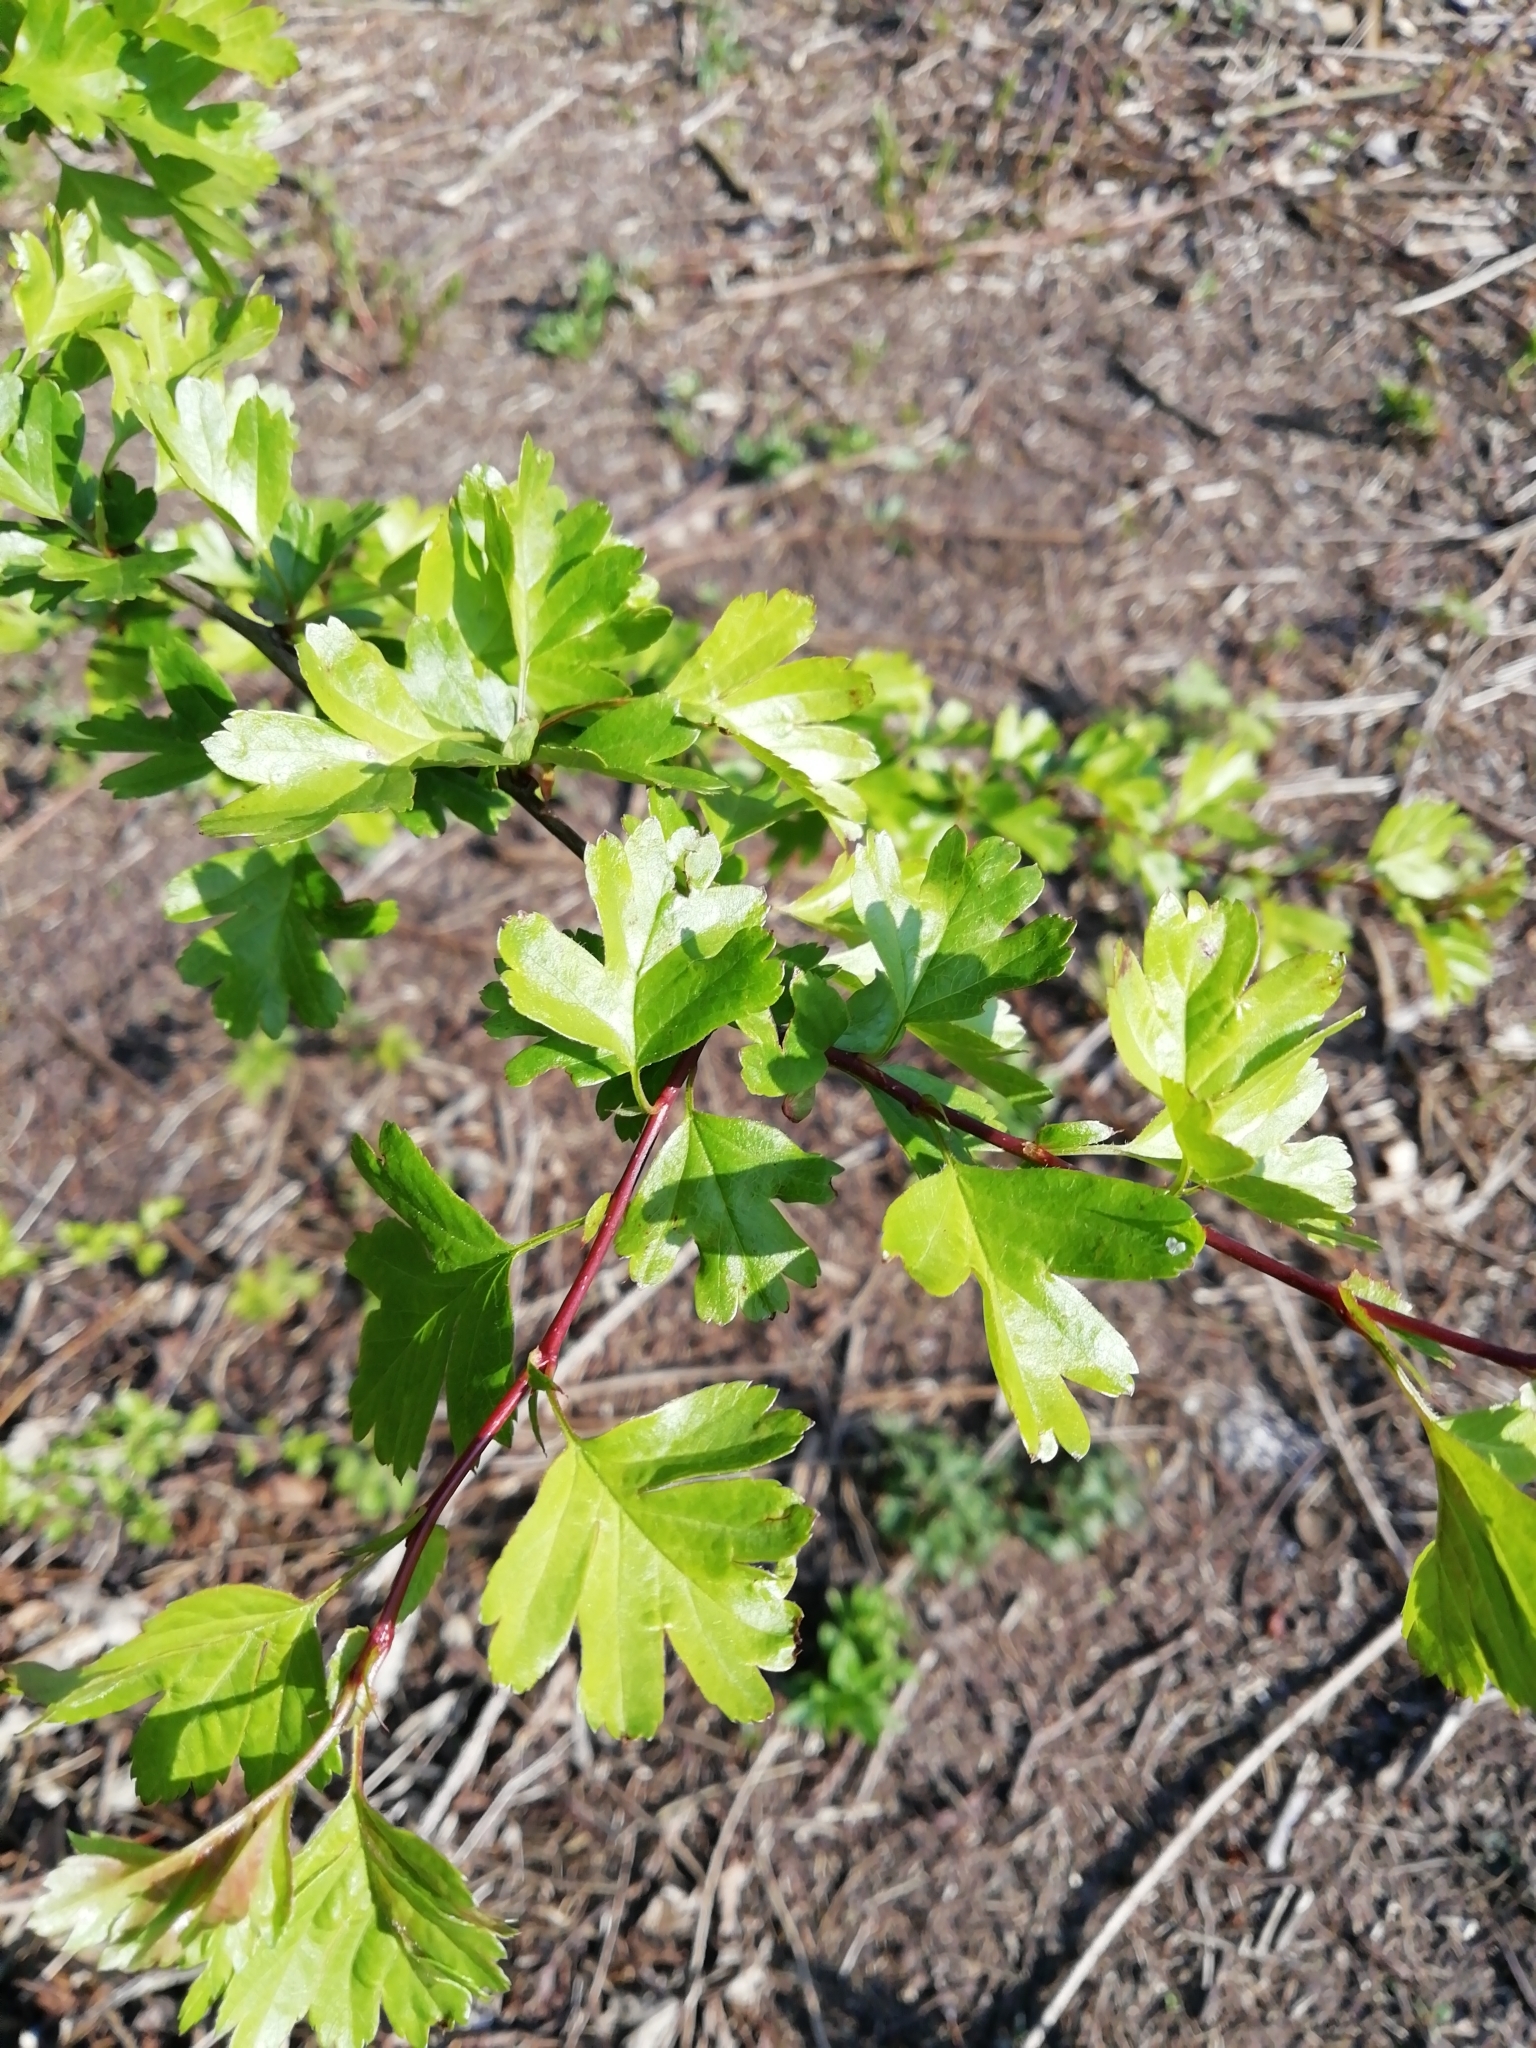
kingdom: Plantae
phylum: Tracheophyta
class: Magnoliopsida
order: Rosales
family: Rosaceae
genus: Crataegus
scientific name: Crataegus monogyna
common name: Hawthorn
